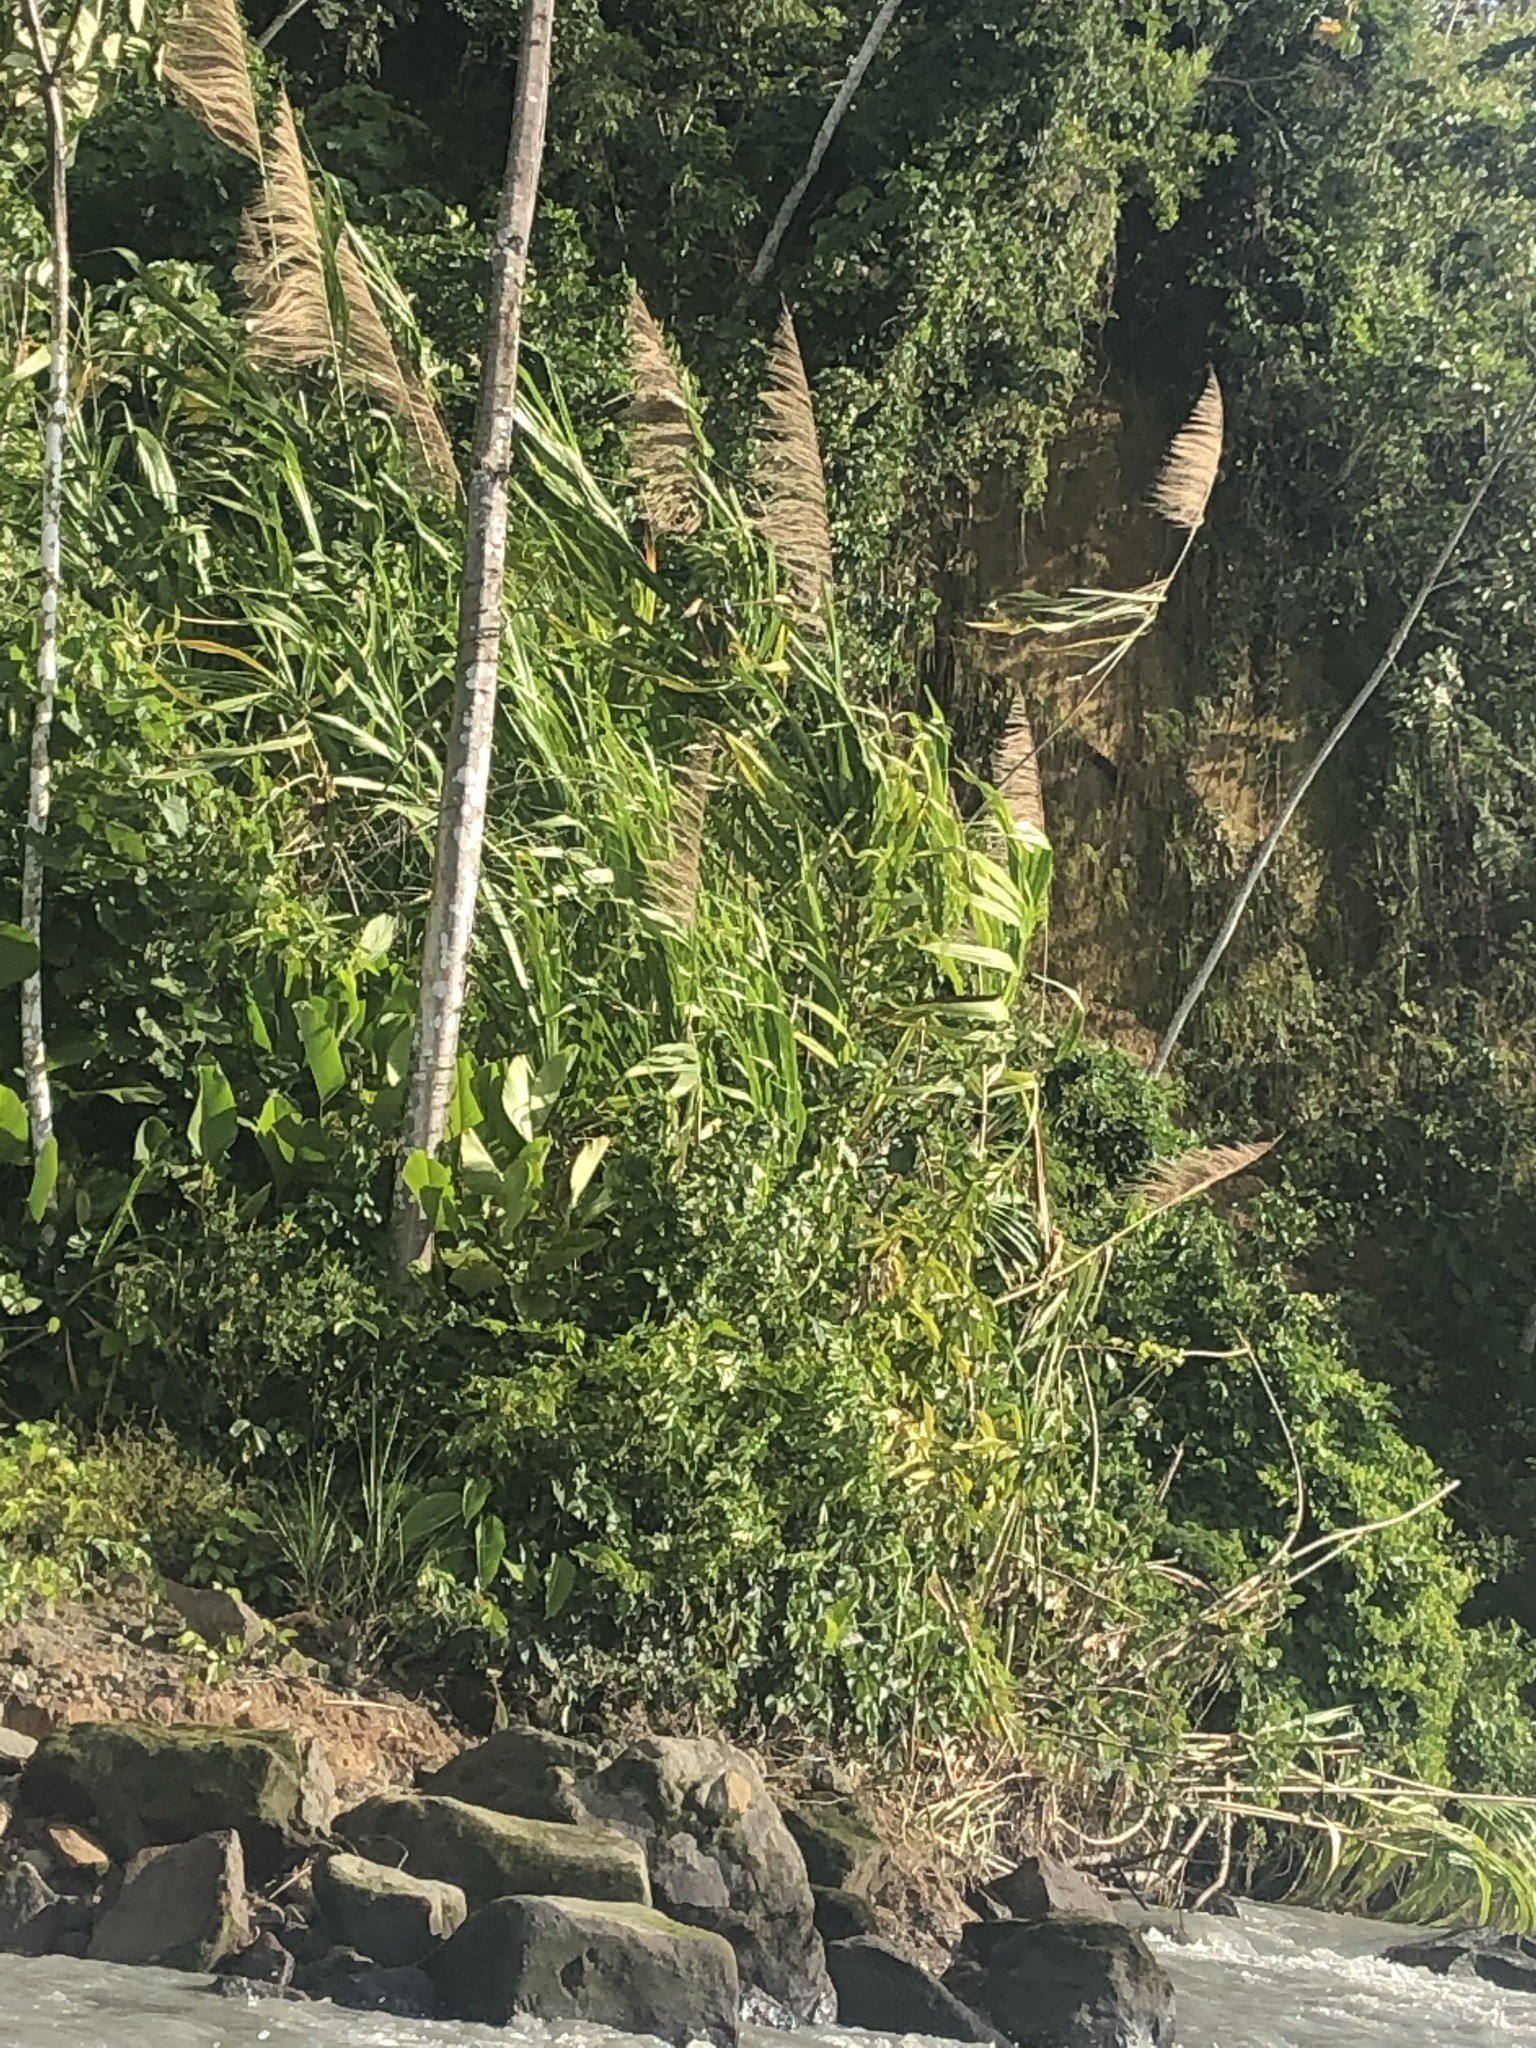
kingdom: Plantae
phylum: Tracheophyta
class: Liliopsida
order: Poales
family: Poaceae
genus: Gynerium
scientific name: Gynerium sagittatum
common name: Wild cane
